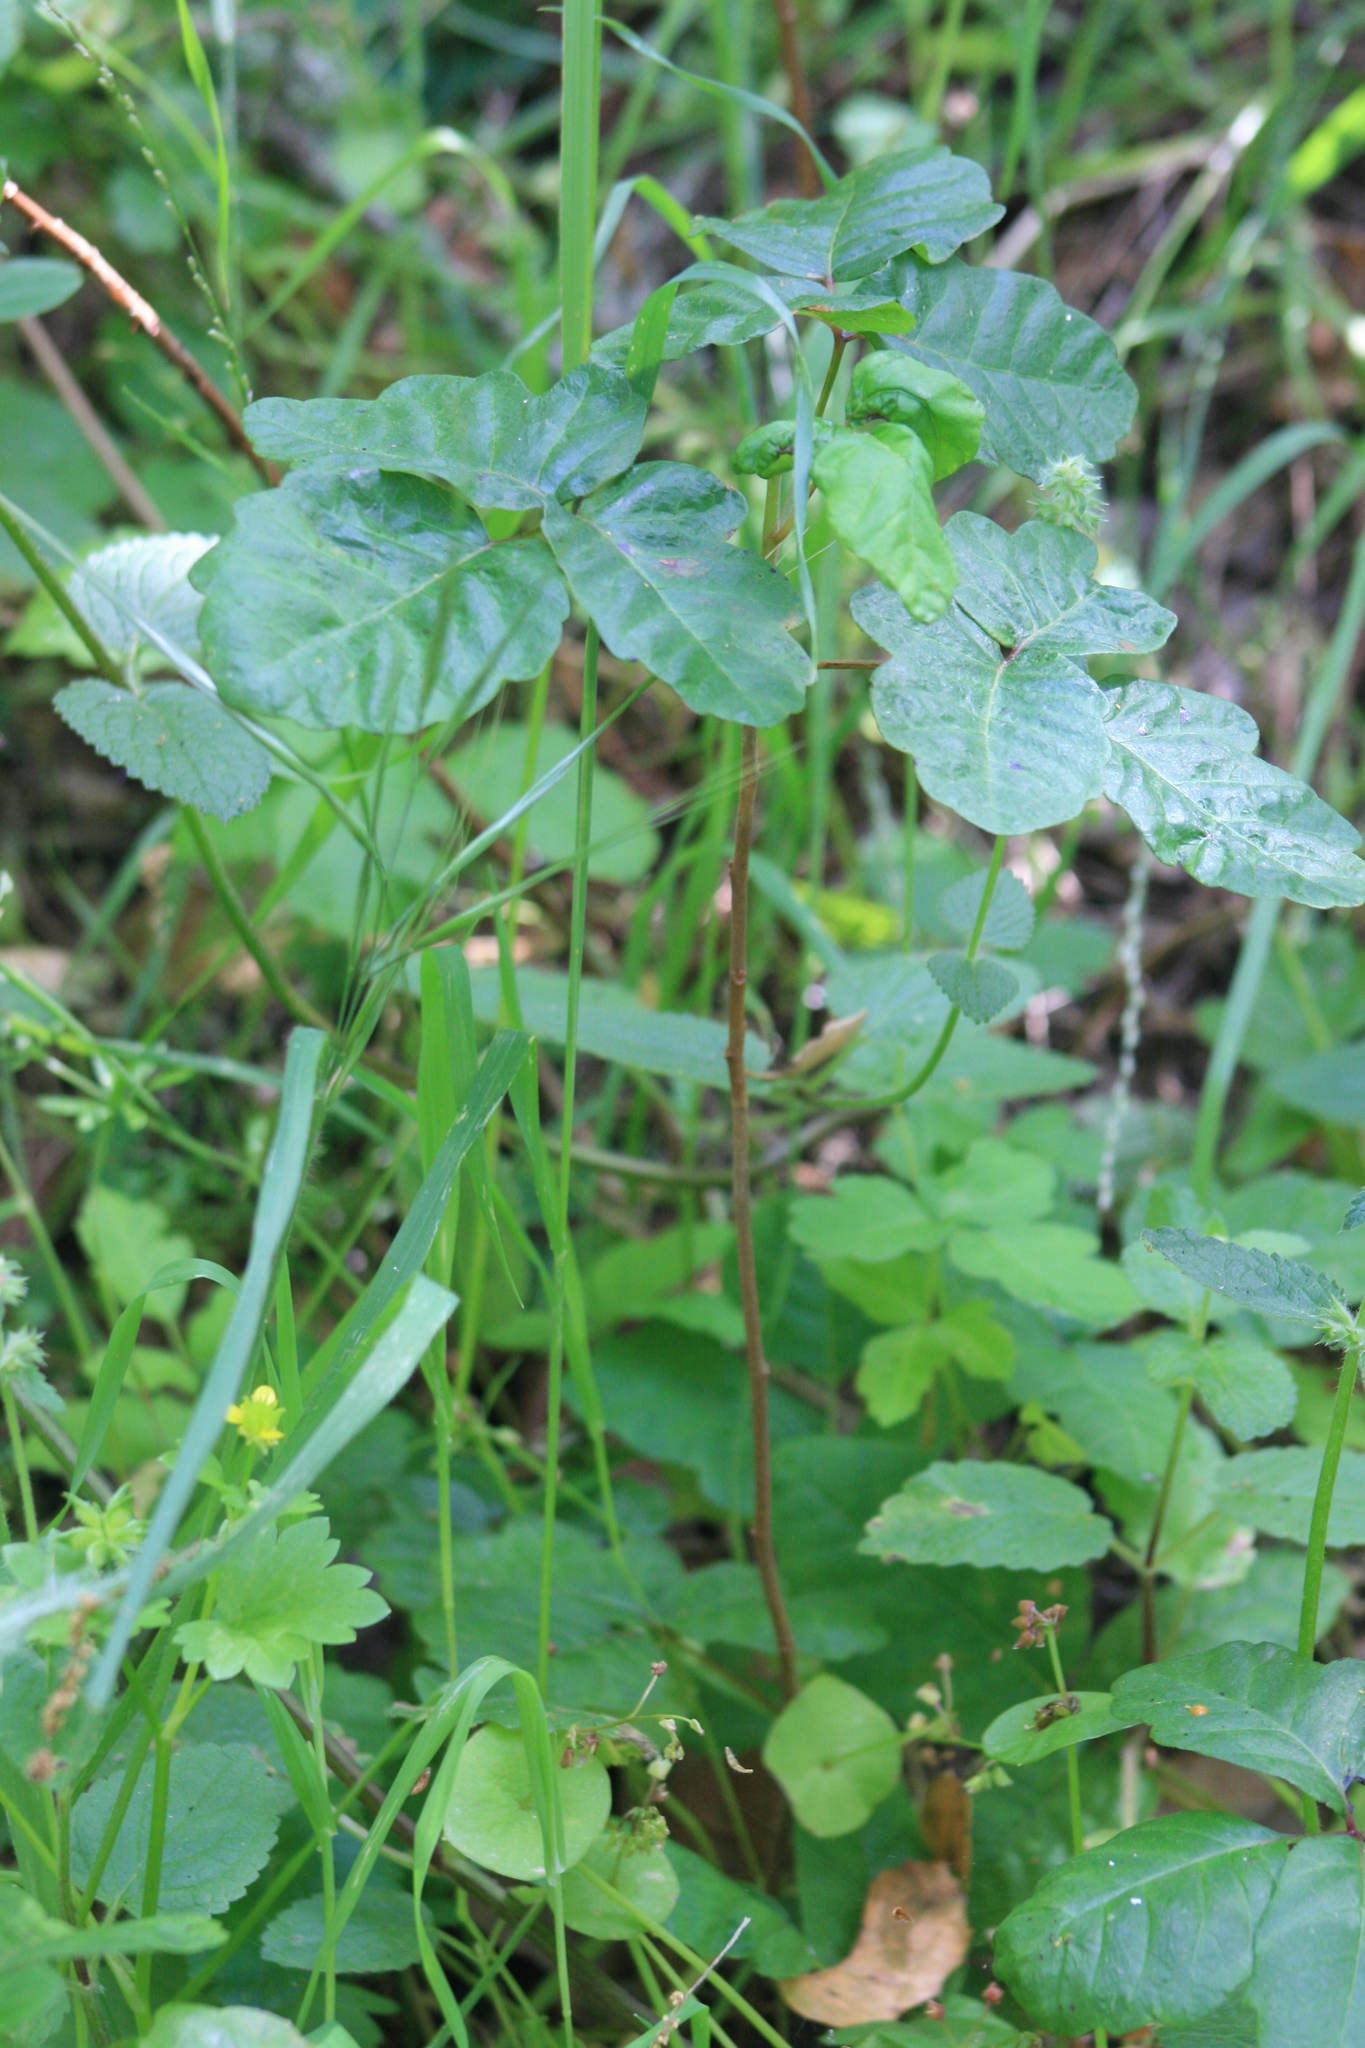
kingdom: Plantae
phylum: Tracheophyta
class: Magnoliopsida
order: Sapindales
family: Anacardiaceae
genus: Toxicodendron
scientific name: Toxicodendron diversilobum
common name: Pacific poison-oak
